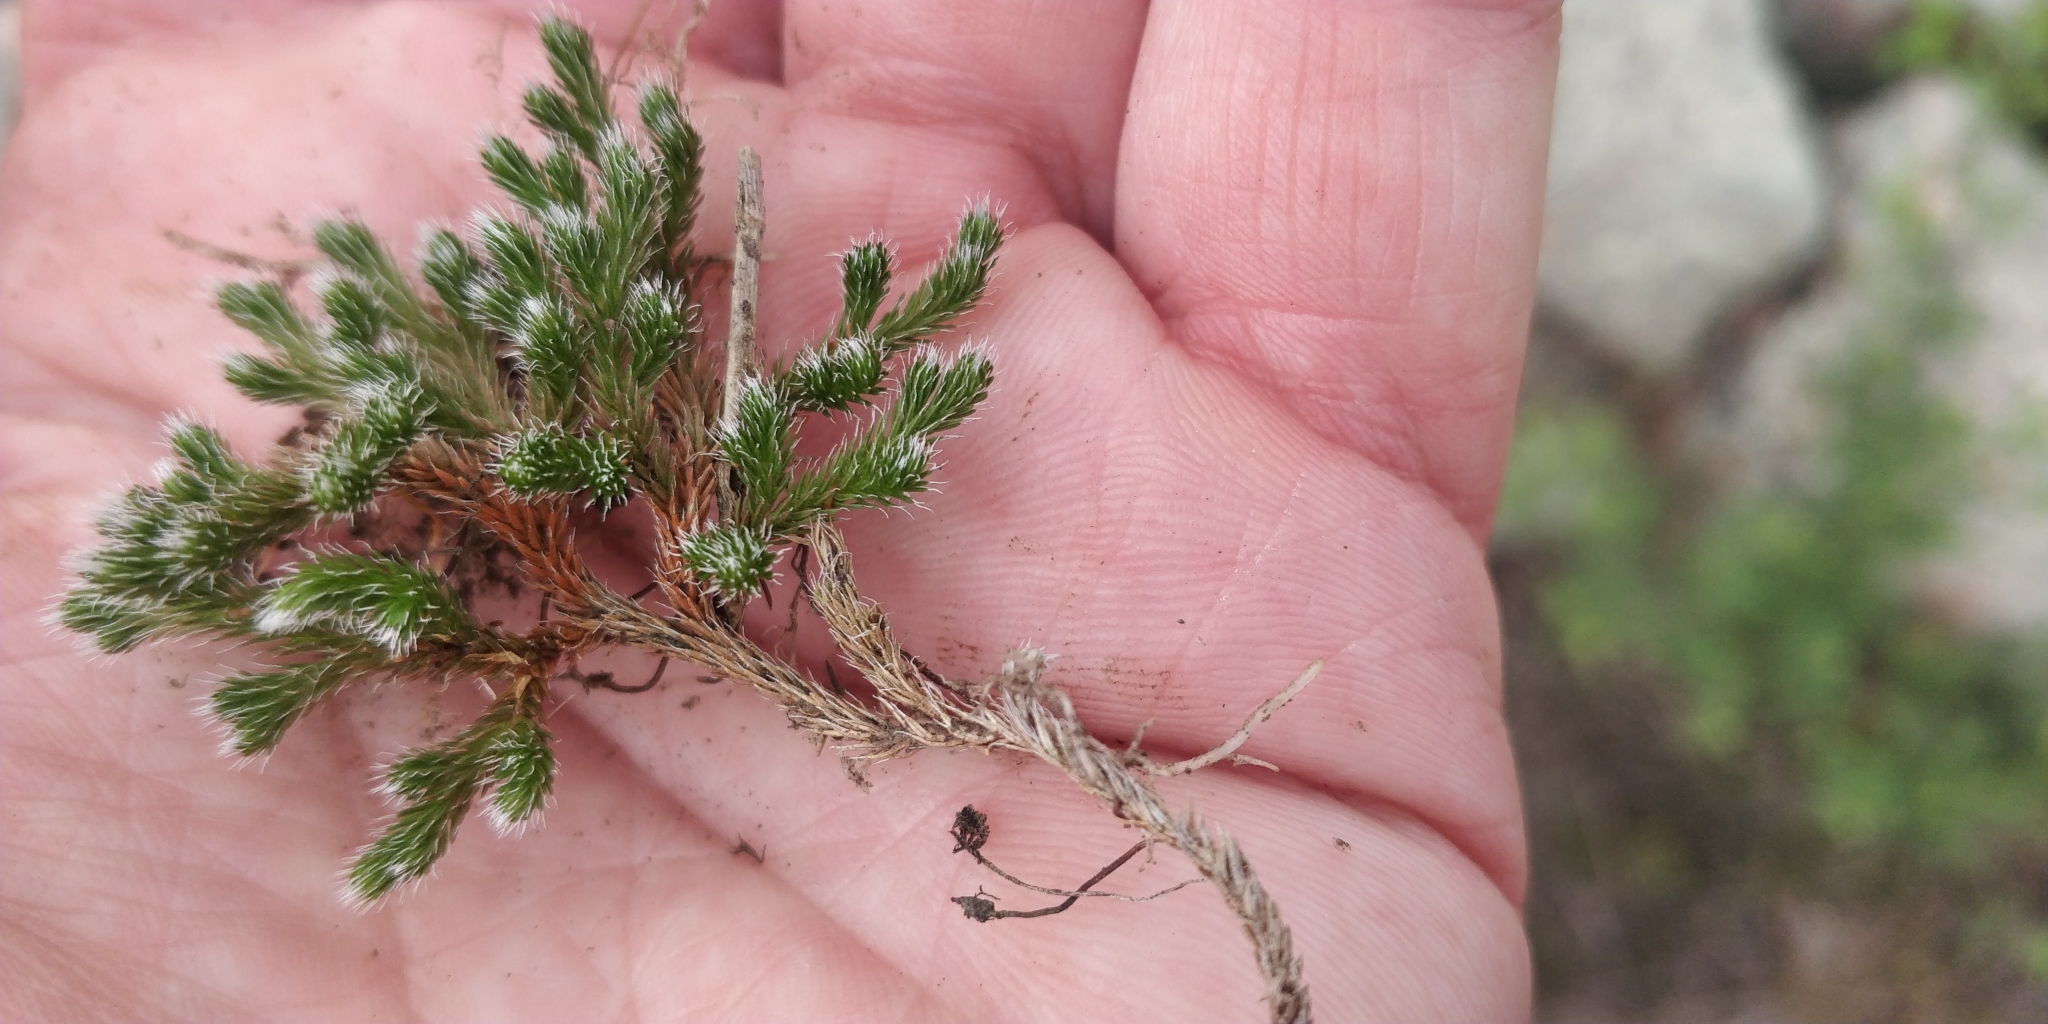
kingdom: Plantae
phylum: Tracheophyta
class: Lycopodiopsida
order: Selaginellales
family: Selaginellaceae
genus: Selaginella
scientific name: Selaginella rupestris
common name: Dwarf spikemoss
